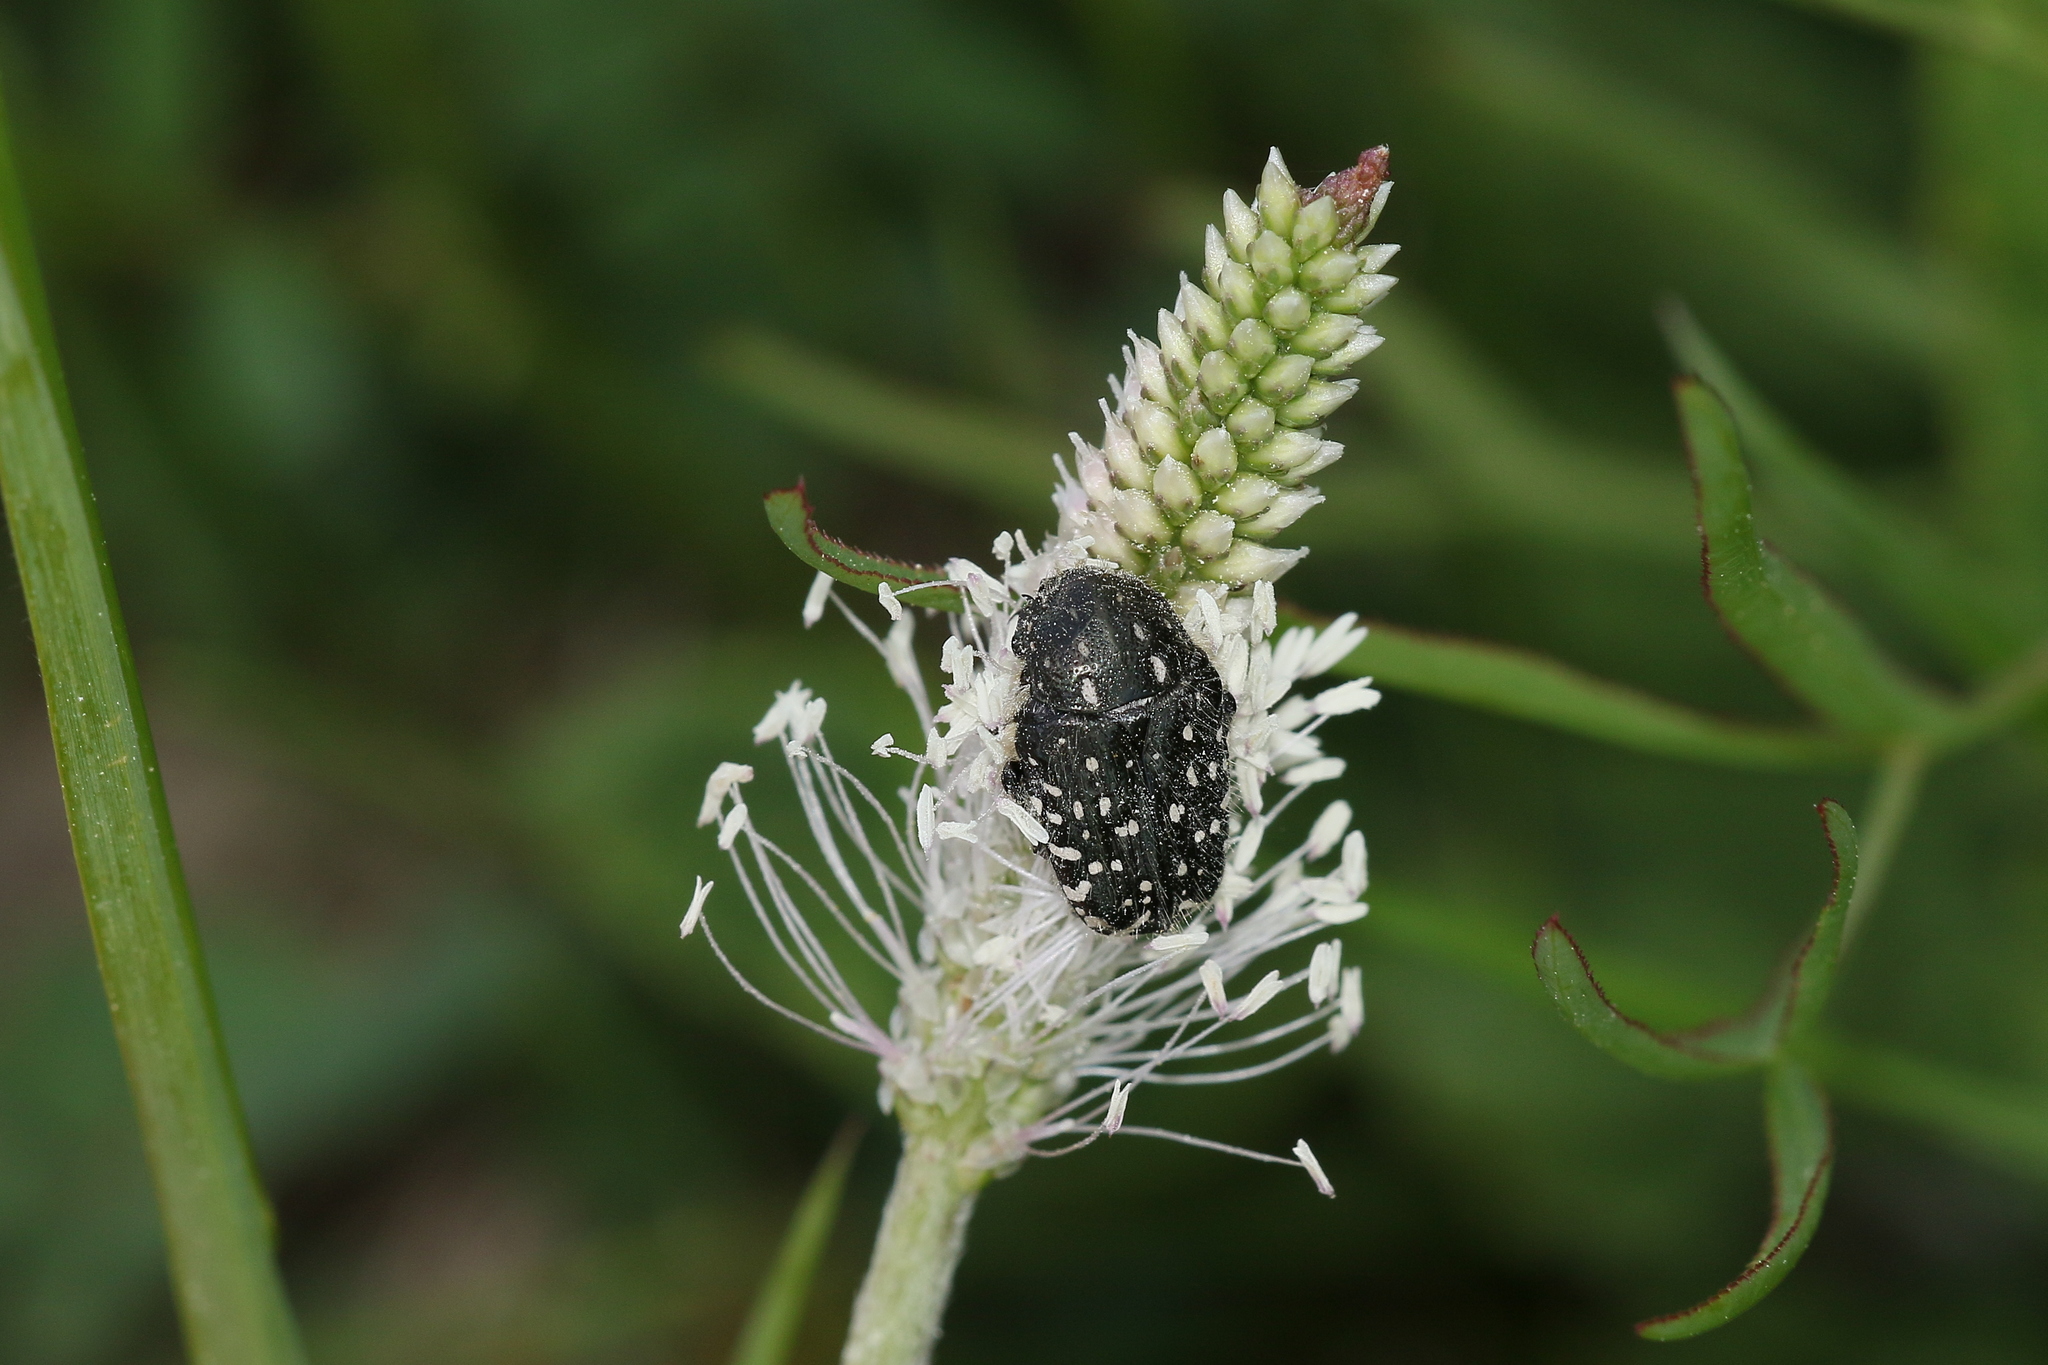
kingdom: Animalia
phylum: Arthropoda
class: Insecta
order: Coleoptera
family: Scarabaeidae
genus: Oxythyrea
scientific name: Oxythyrea funesta
